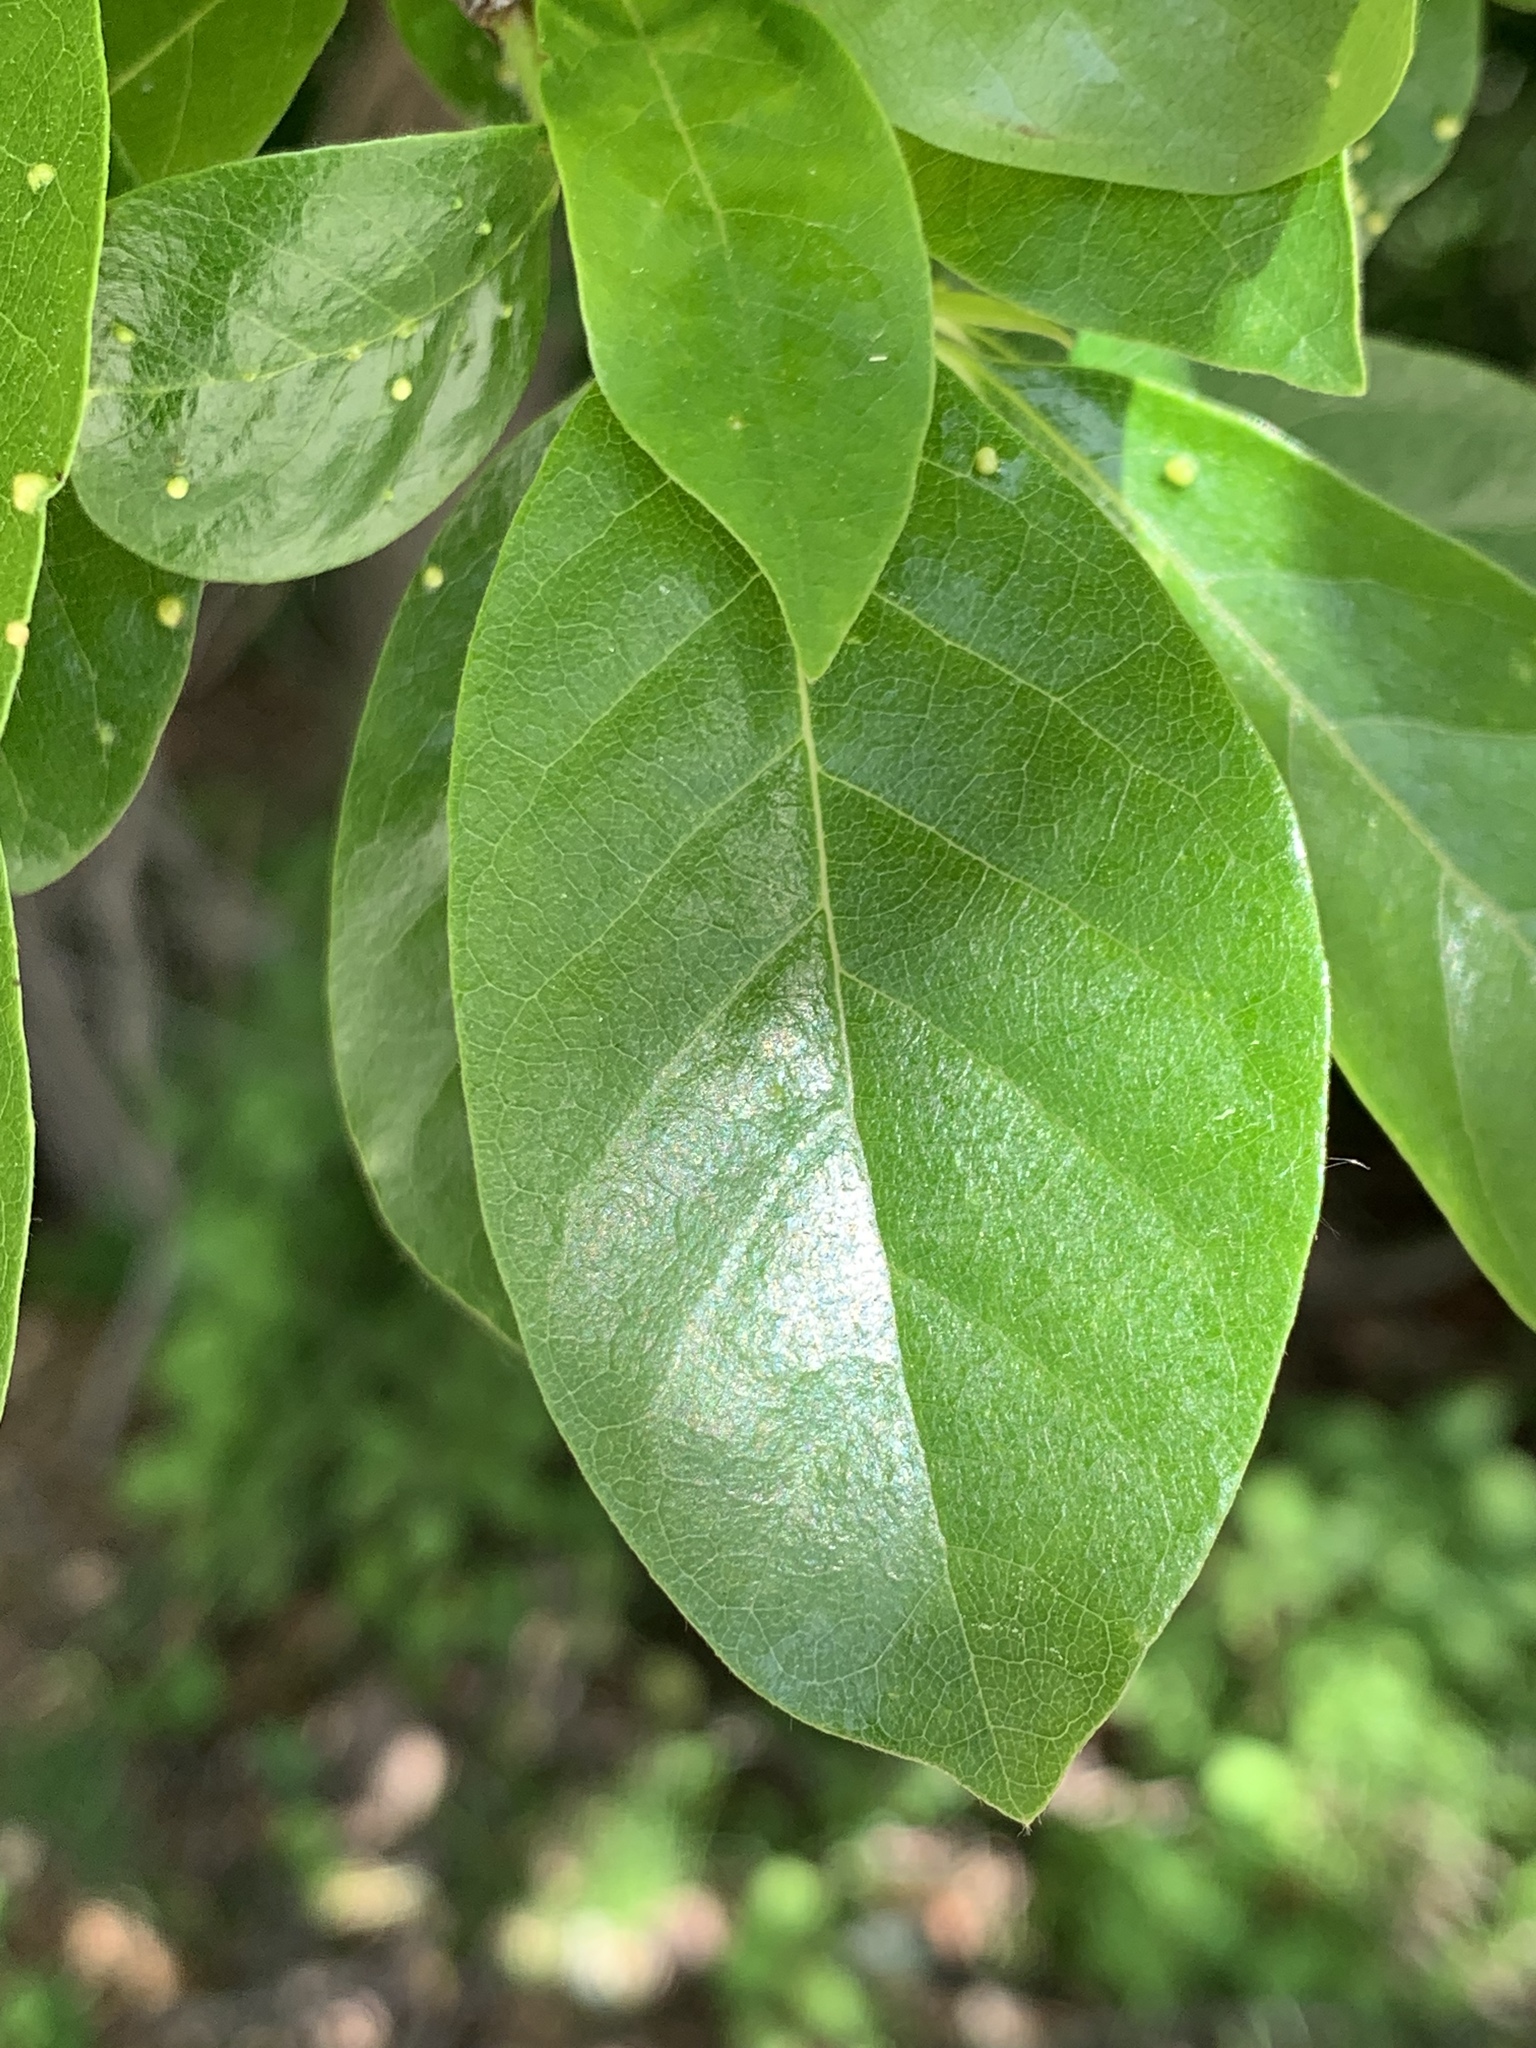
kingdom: Plantae
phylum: Tracheophyta
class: Magnoliopsida
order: Cornales
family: Nyssaceae
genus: Nyssa
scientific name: Nyssa sylvatica
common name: Black tupelo
